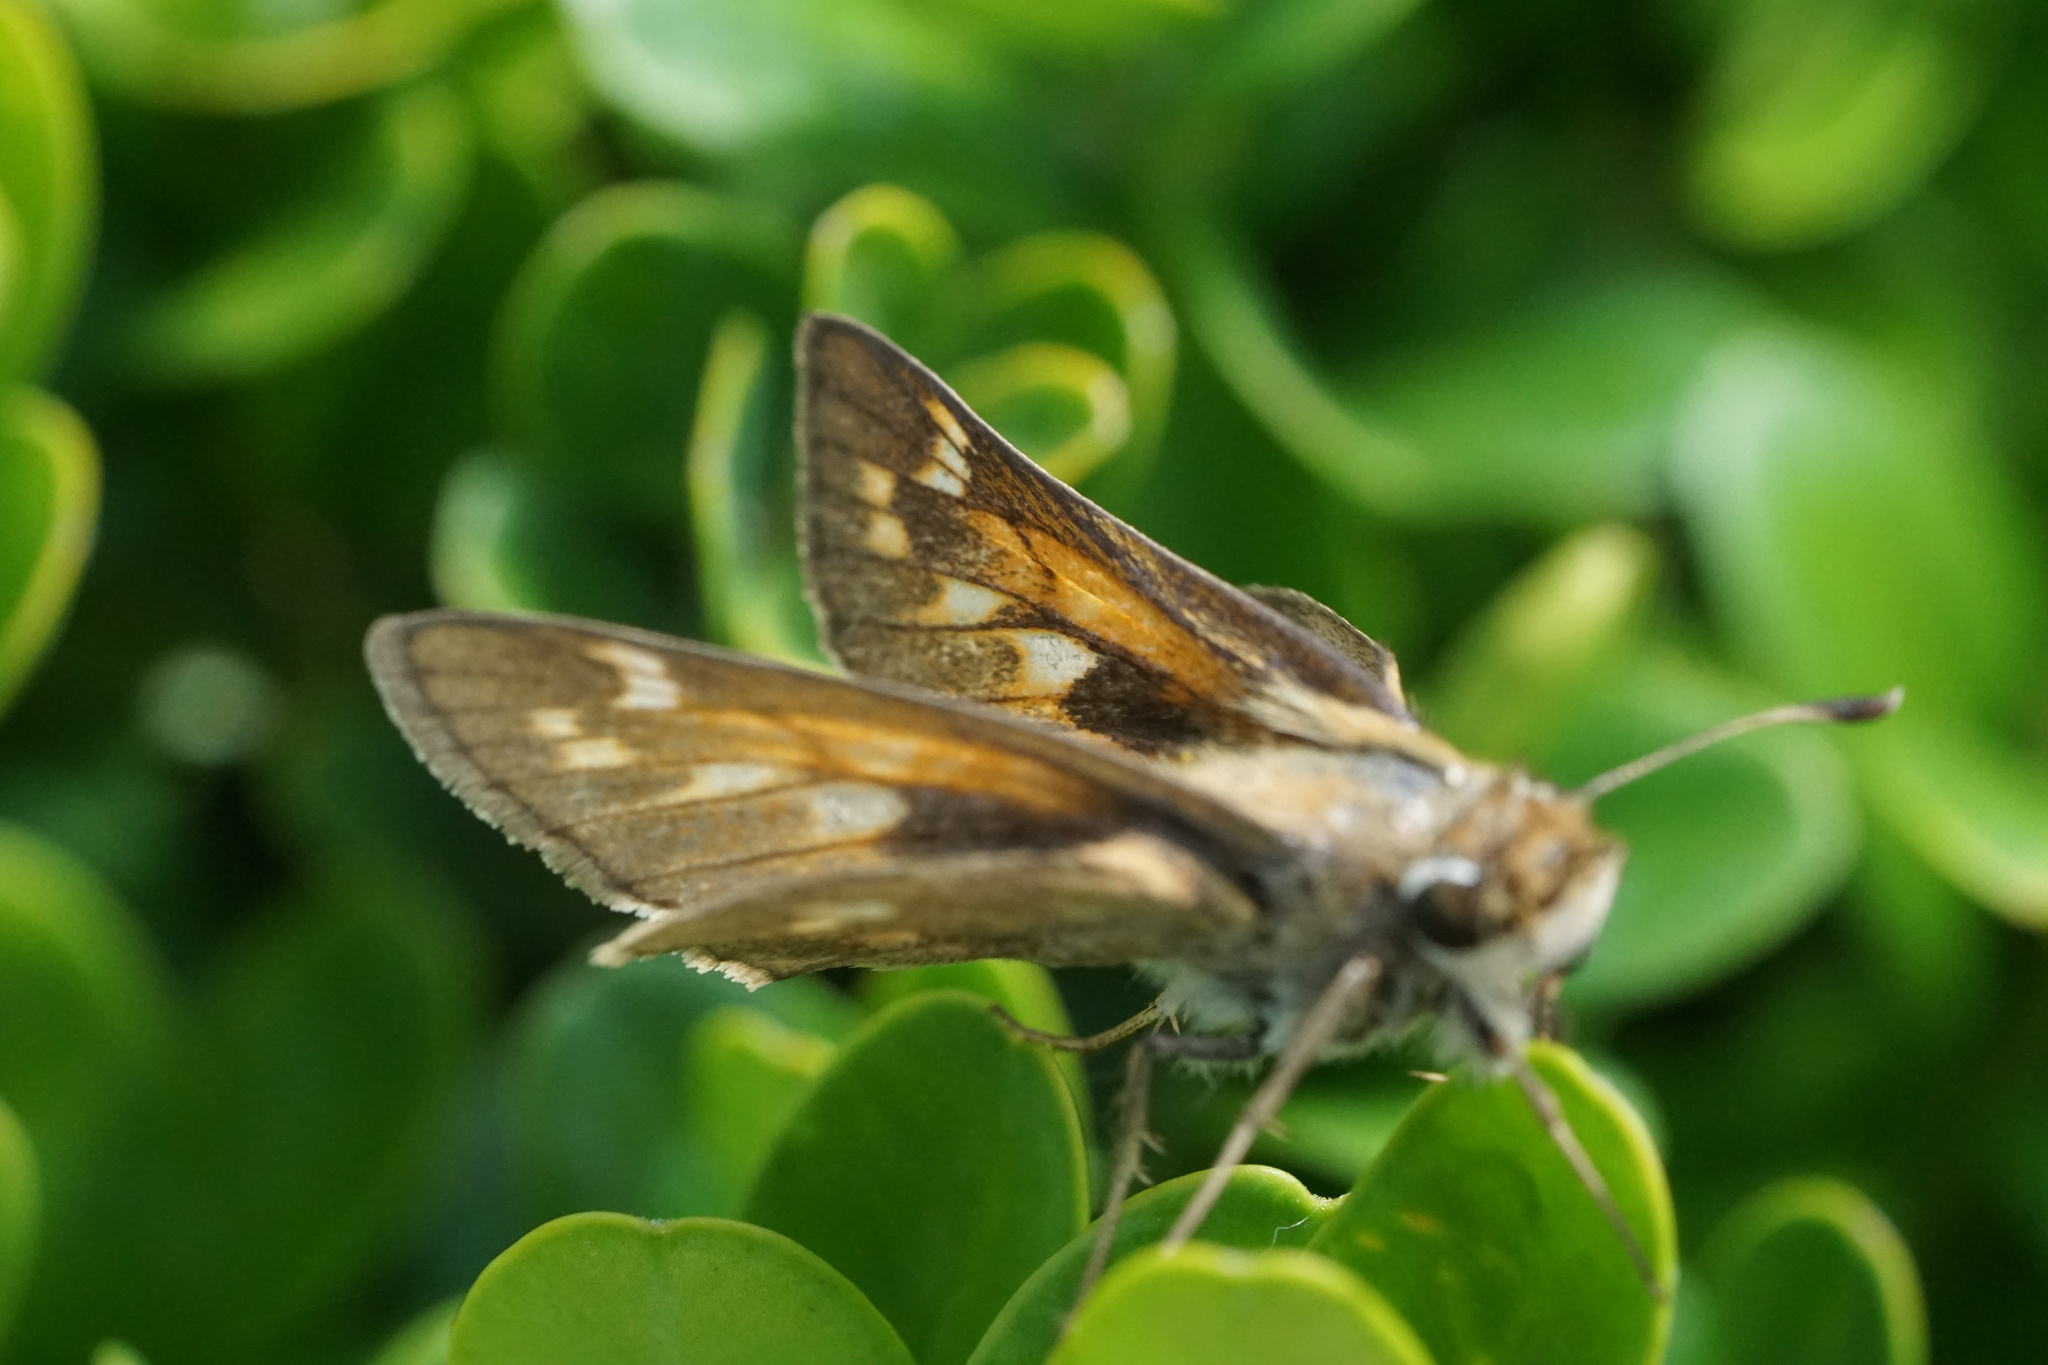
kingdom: Animalia
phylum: Arthropoda
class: Insecta
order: Lepidoptera
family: Hesperiidae
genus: Atalopedes
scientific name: Atalopedes
